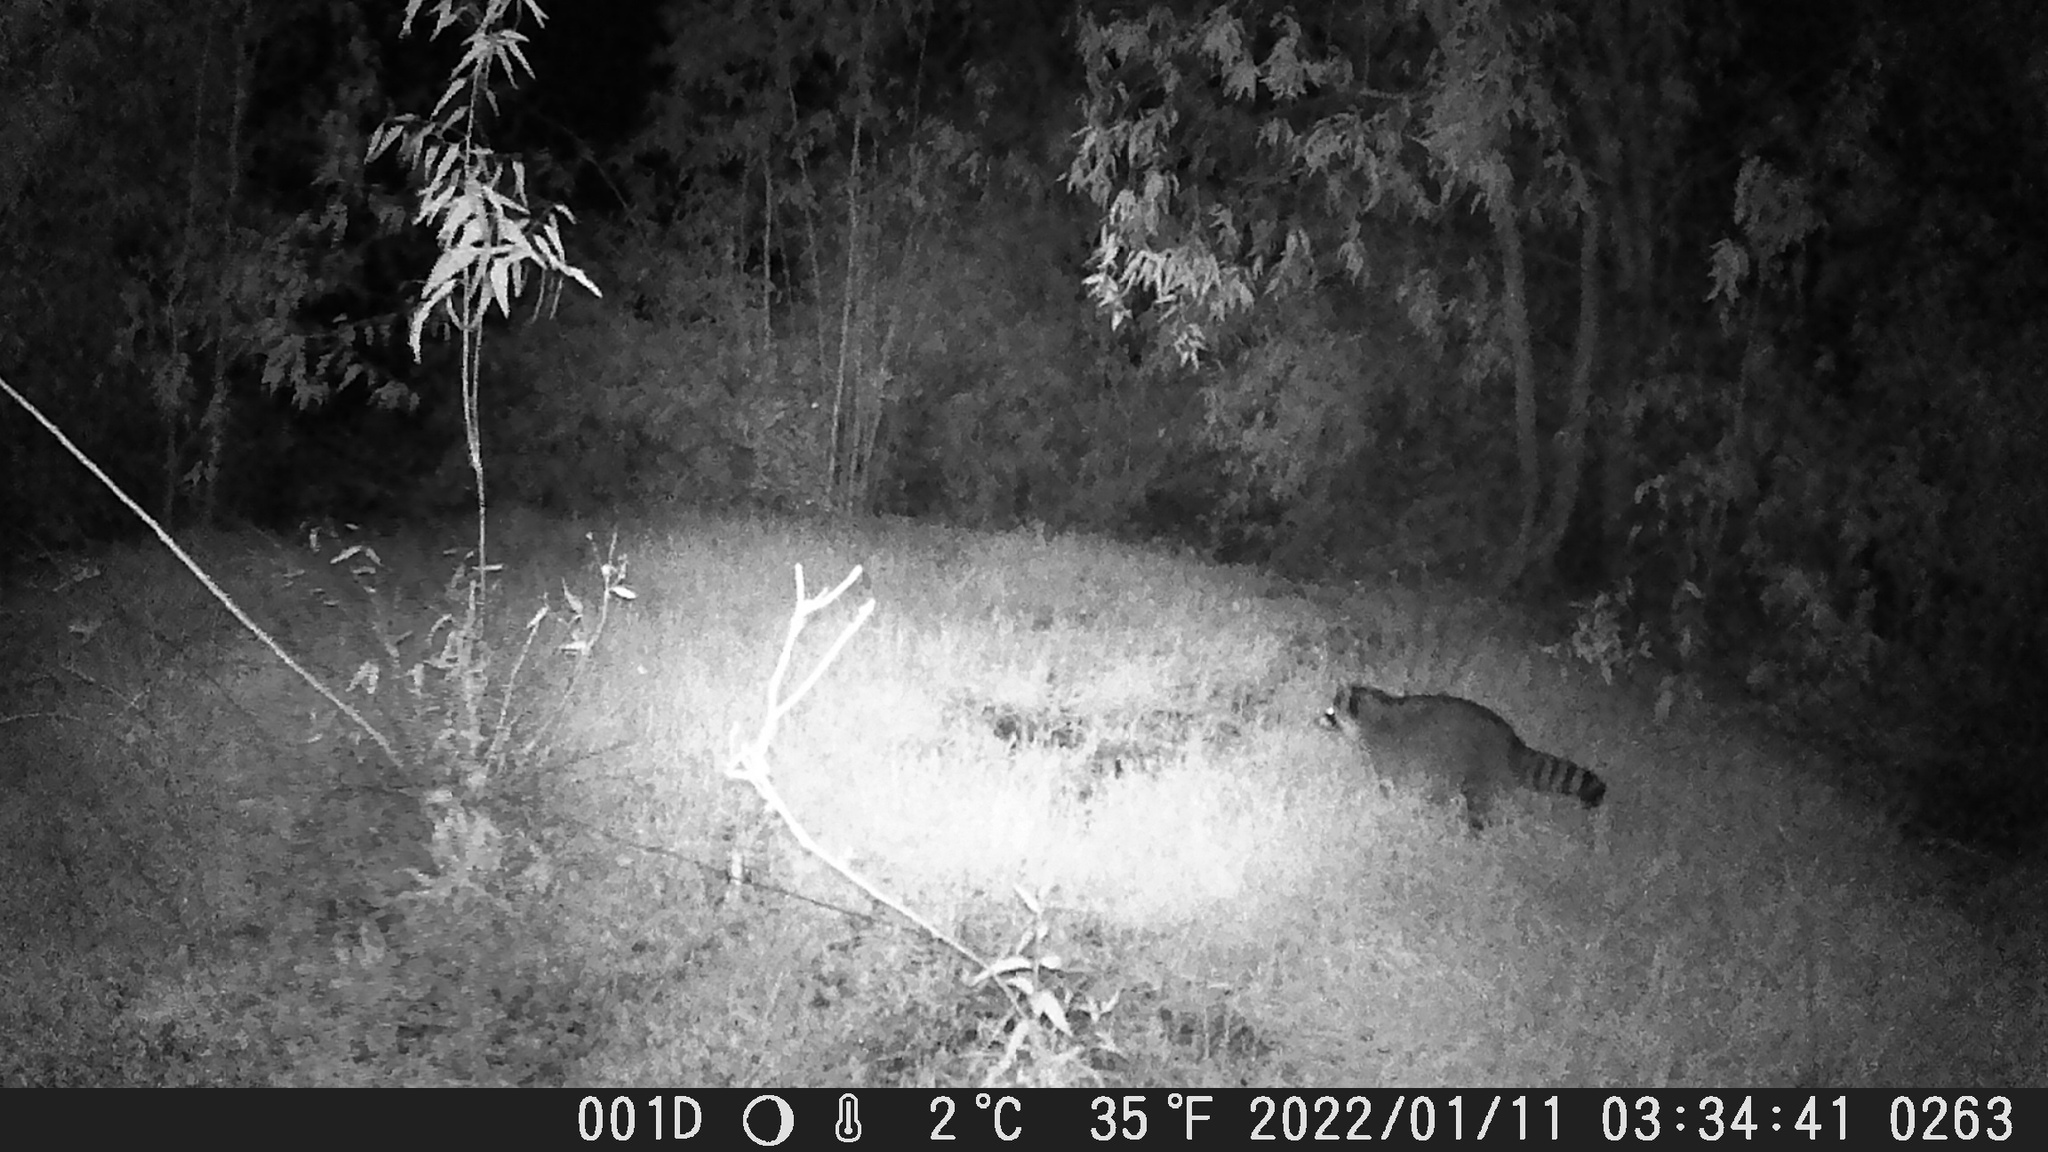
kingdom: Animalia
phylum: Chordata
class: Mammalia
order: Carnivora
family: Procyonidae
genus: Procyon
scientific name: Procyon lotor
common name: Raccoon
